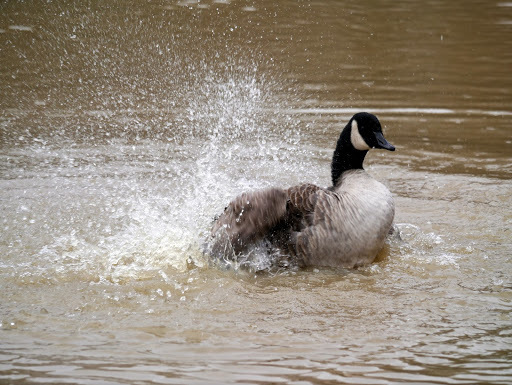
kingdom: Animalia
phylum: Chordata
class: Aves
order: Anseriformes
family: Anatidae
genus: Branta
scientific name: Branta canadensis
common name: Canada goose
